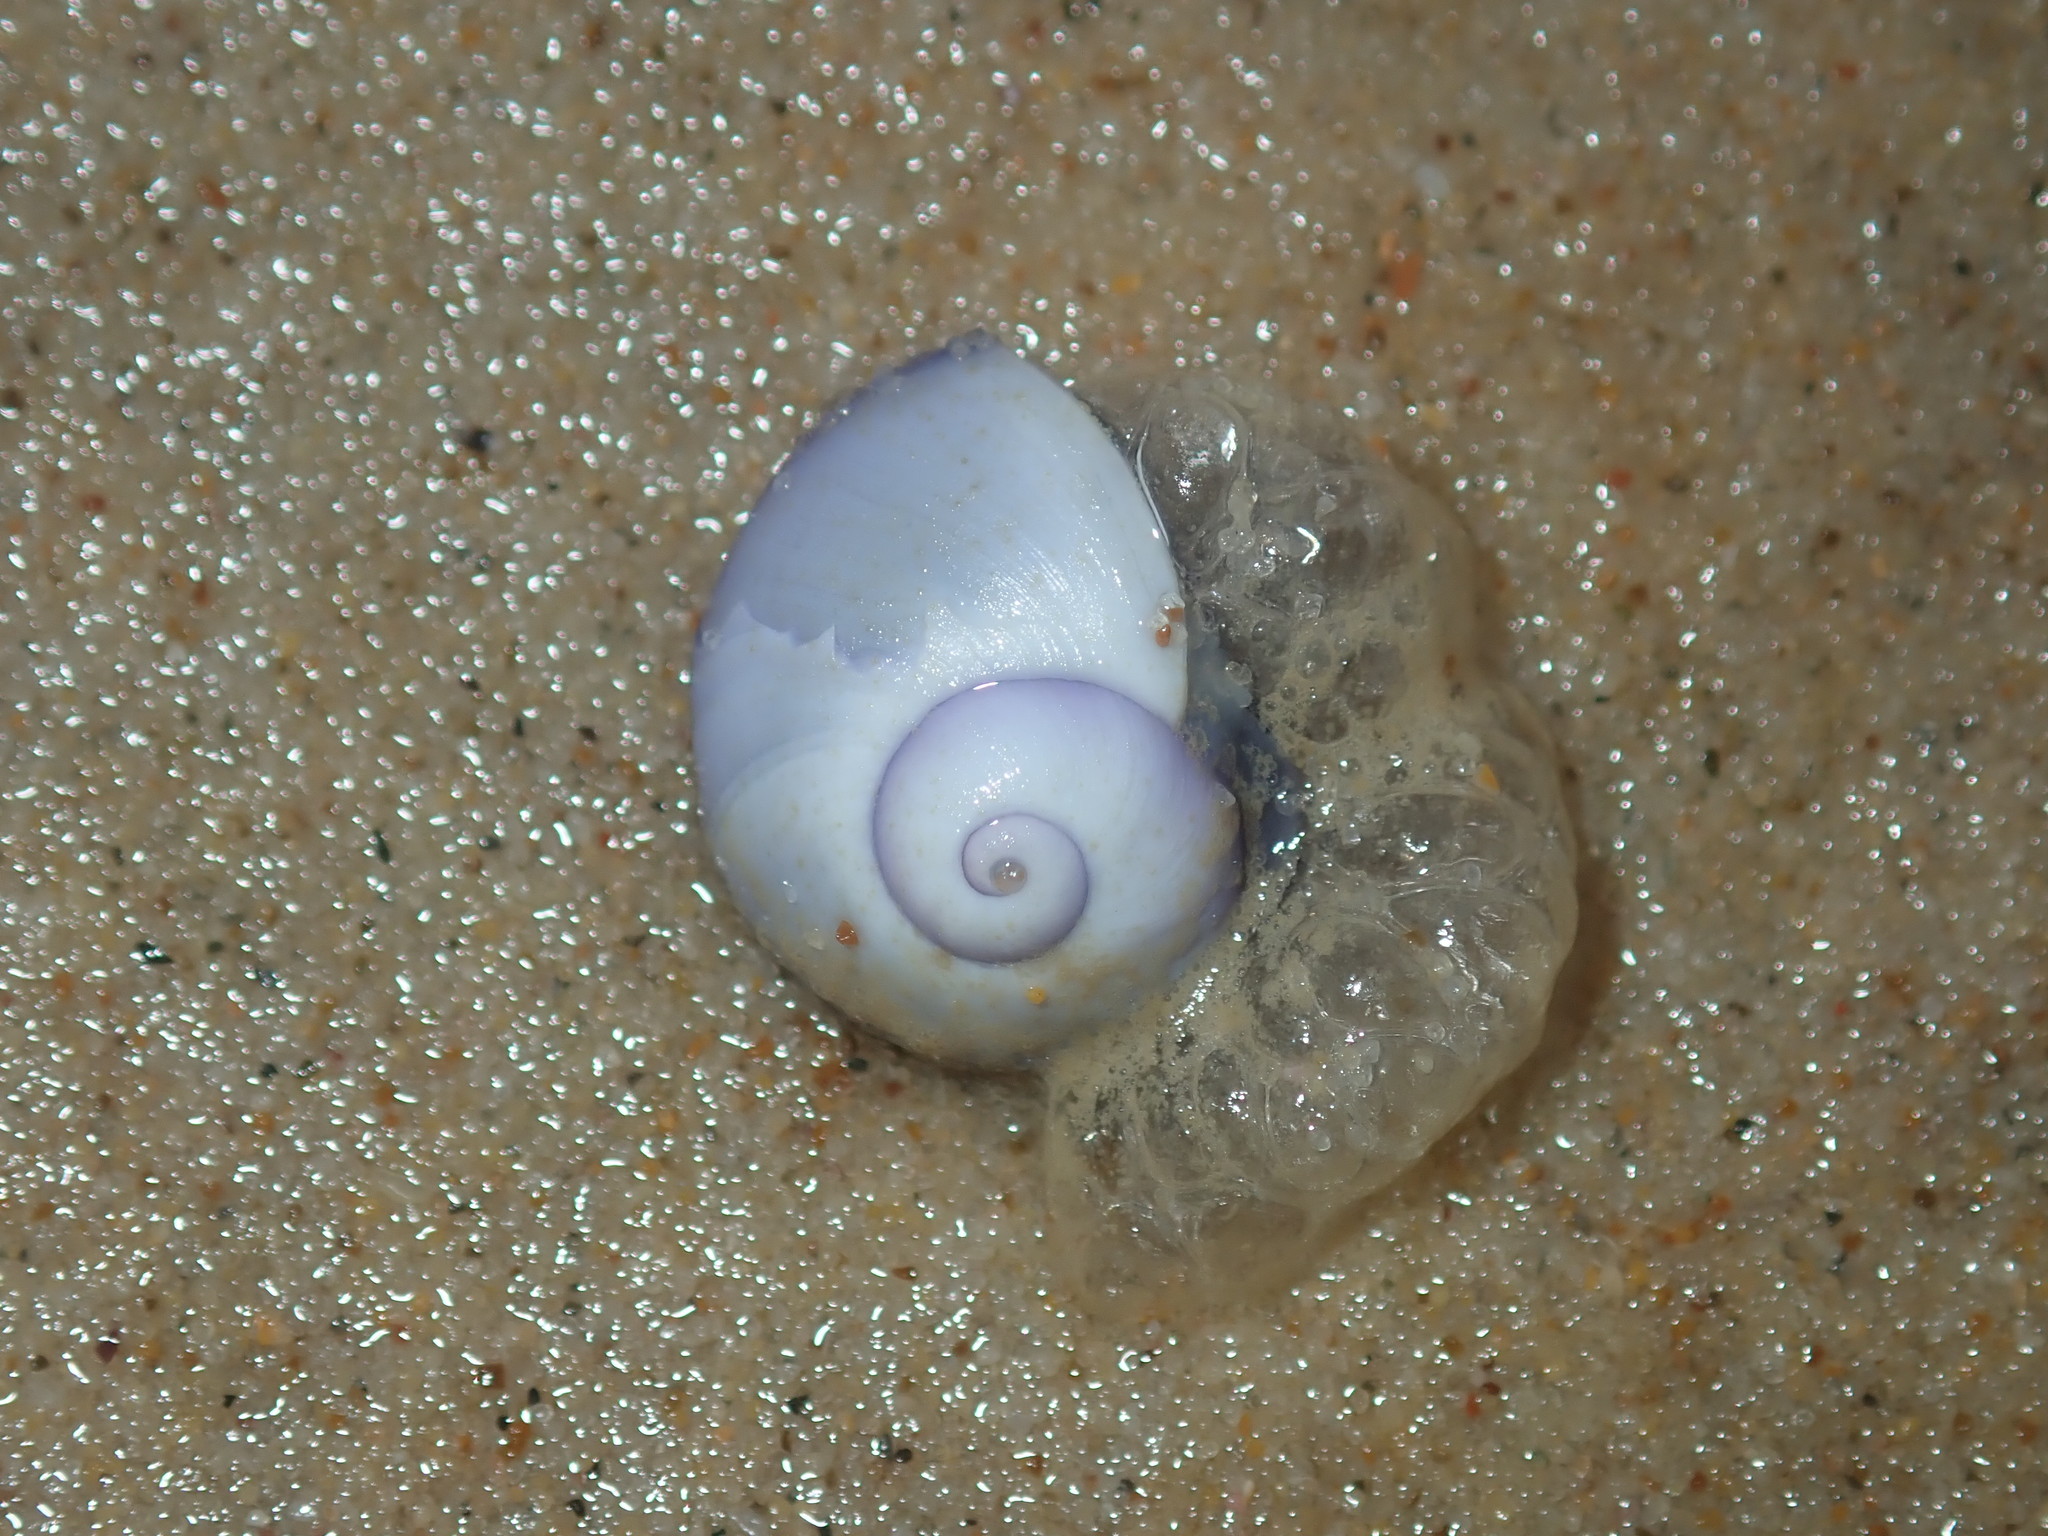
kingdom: Animalia
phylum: Mollusca
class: Gastropoda
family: Epitoniidae
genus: Janthina
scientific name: Janthina janthina
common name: Common janthina
